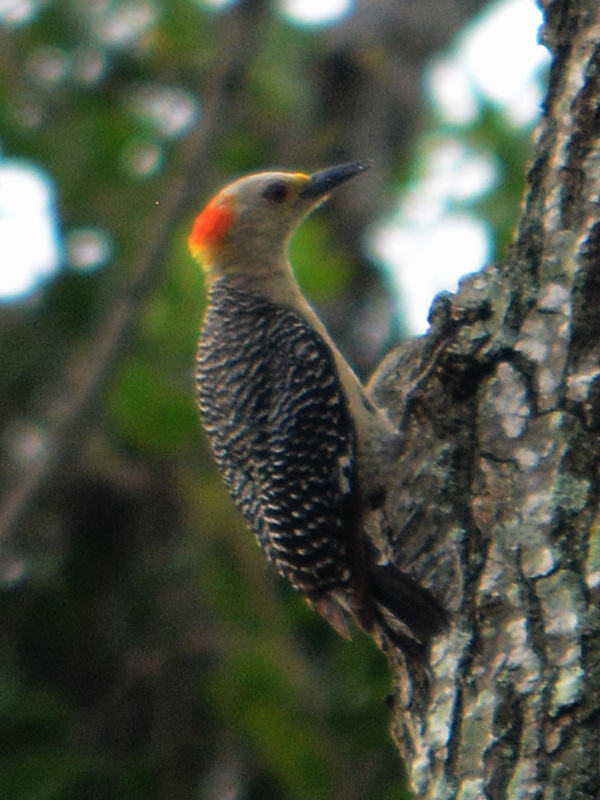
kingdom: Animalia
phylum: Chordata
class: Aves
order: Piciformes
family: Picidae
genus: Melanerpes
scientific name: Melanerpes aurifrons
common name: Golden-fronted woodpecker
